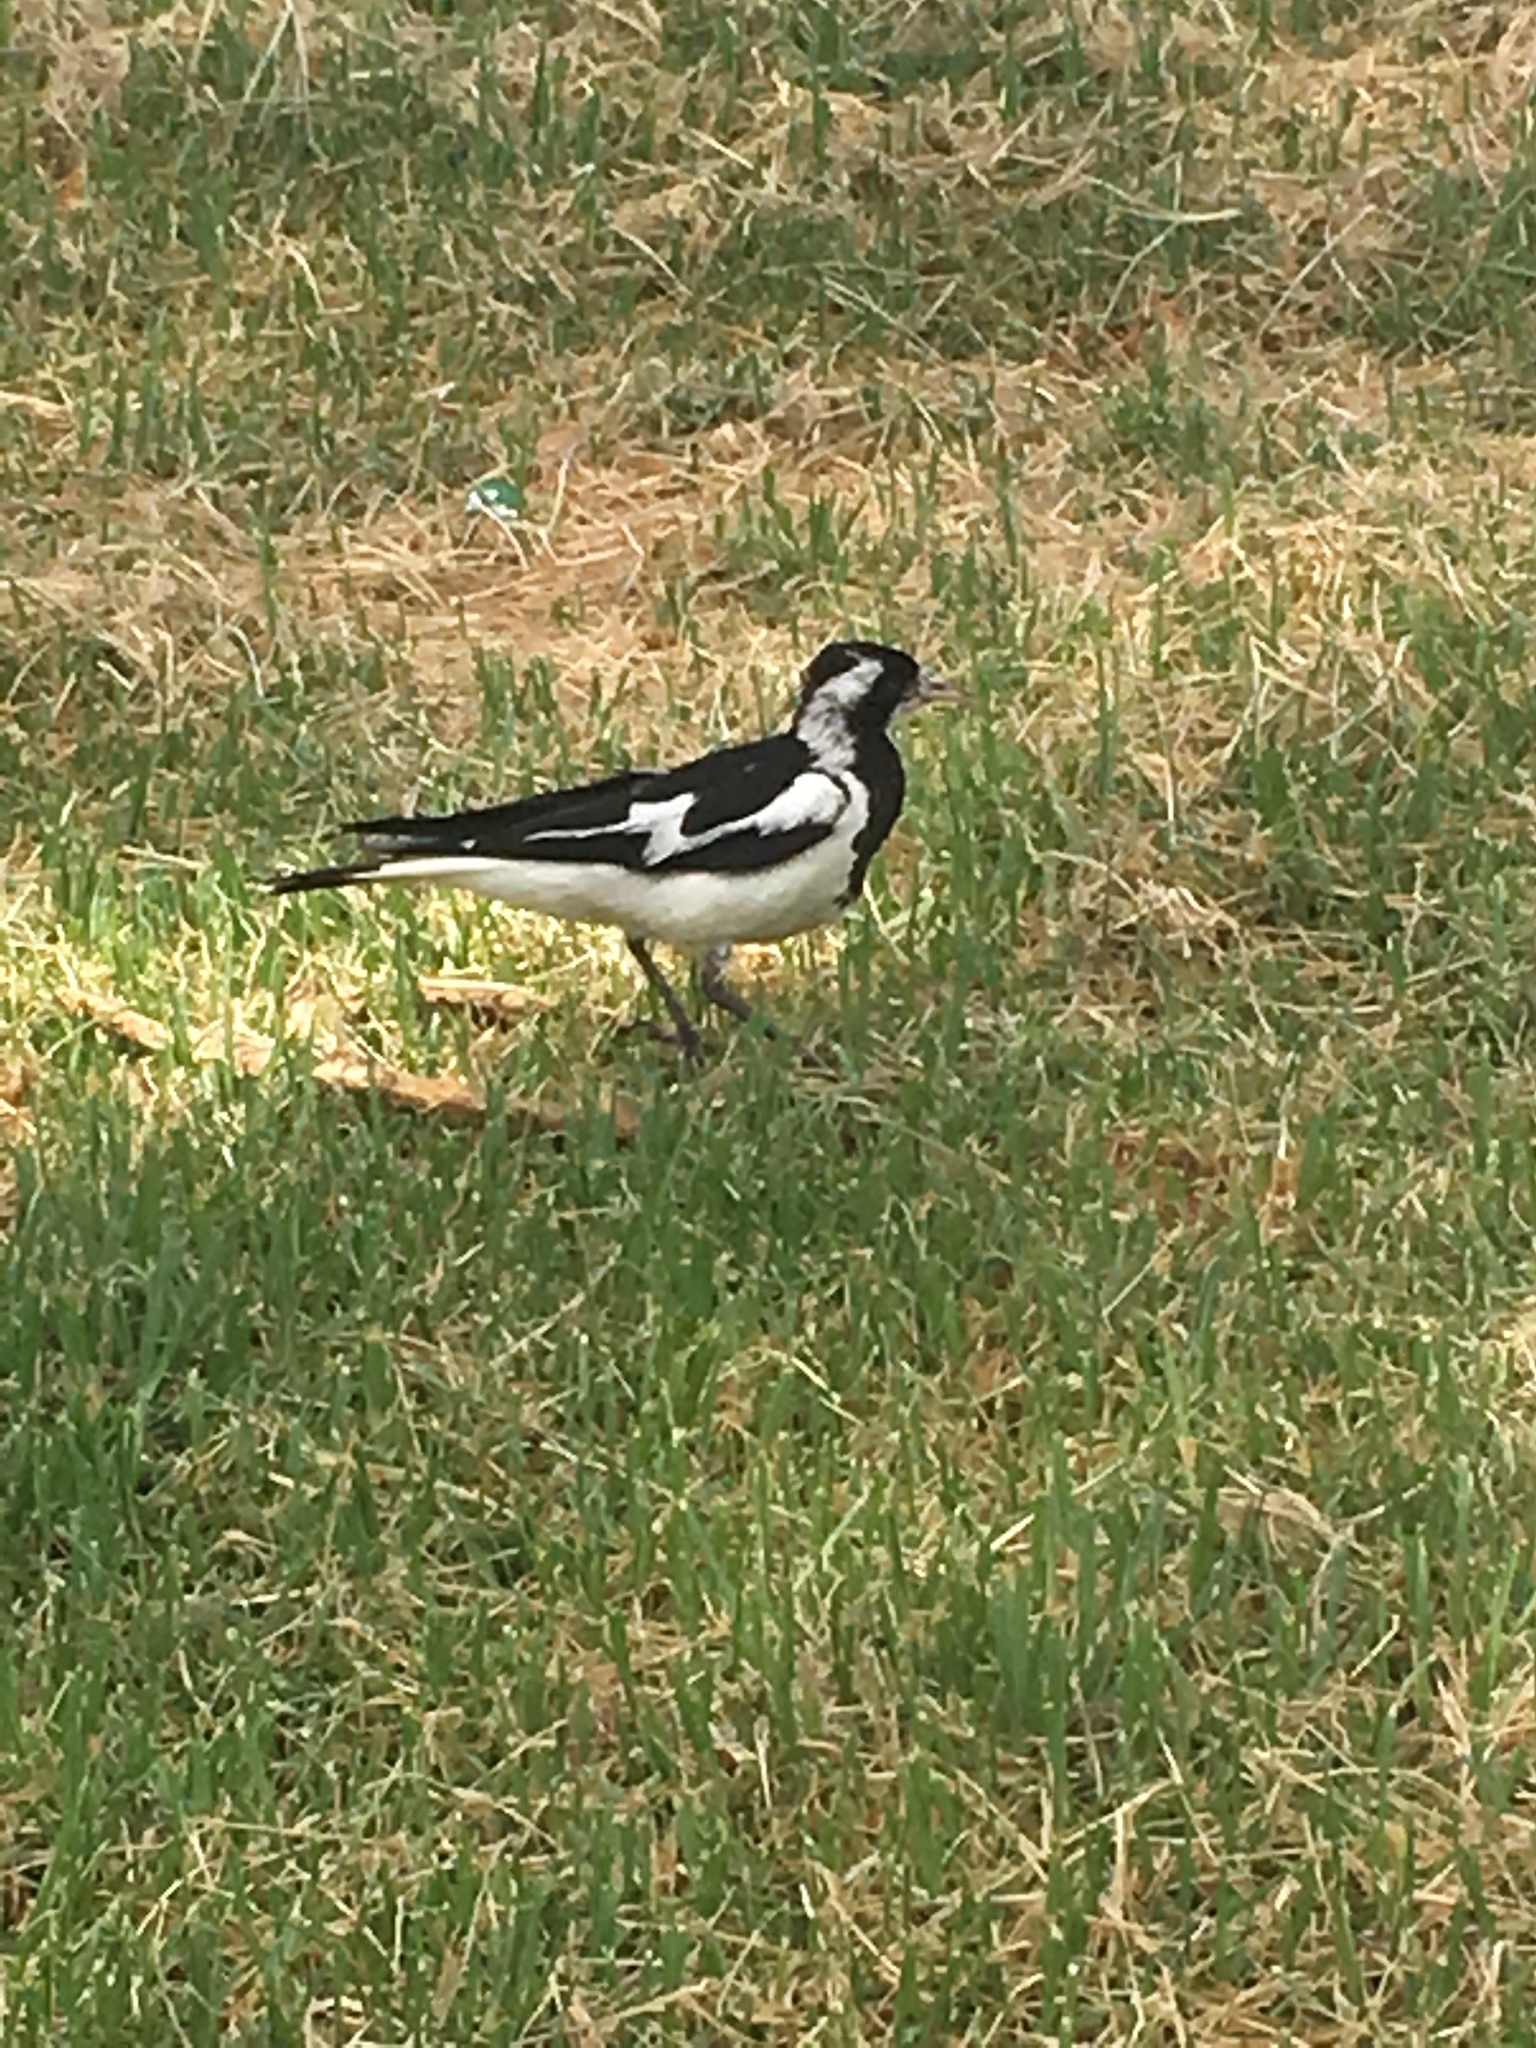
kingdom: Animalia
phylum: Chordata
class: Aves
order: Passeriformes
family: Monarchidae
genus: Grallina
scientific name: Grallina cyanoleuca
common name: Magpie-lark
